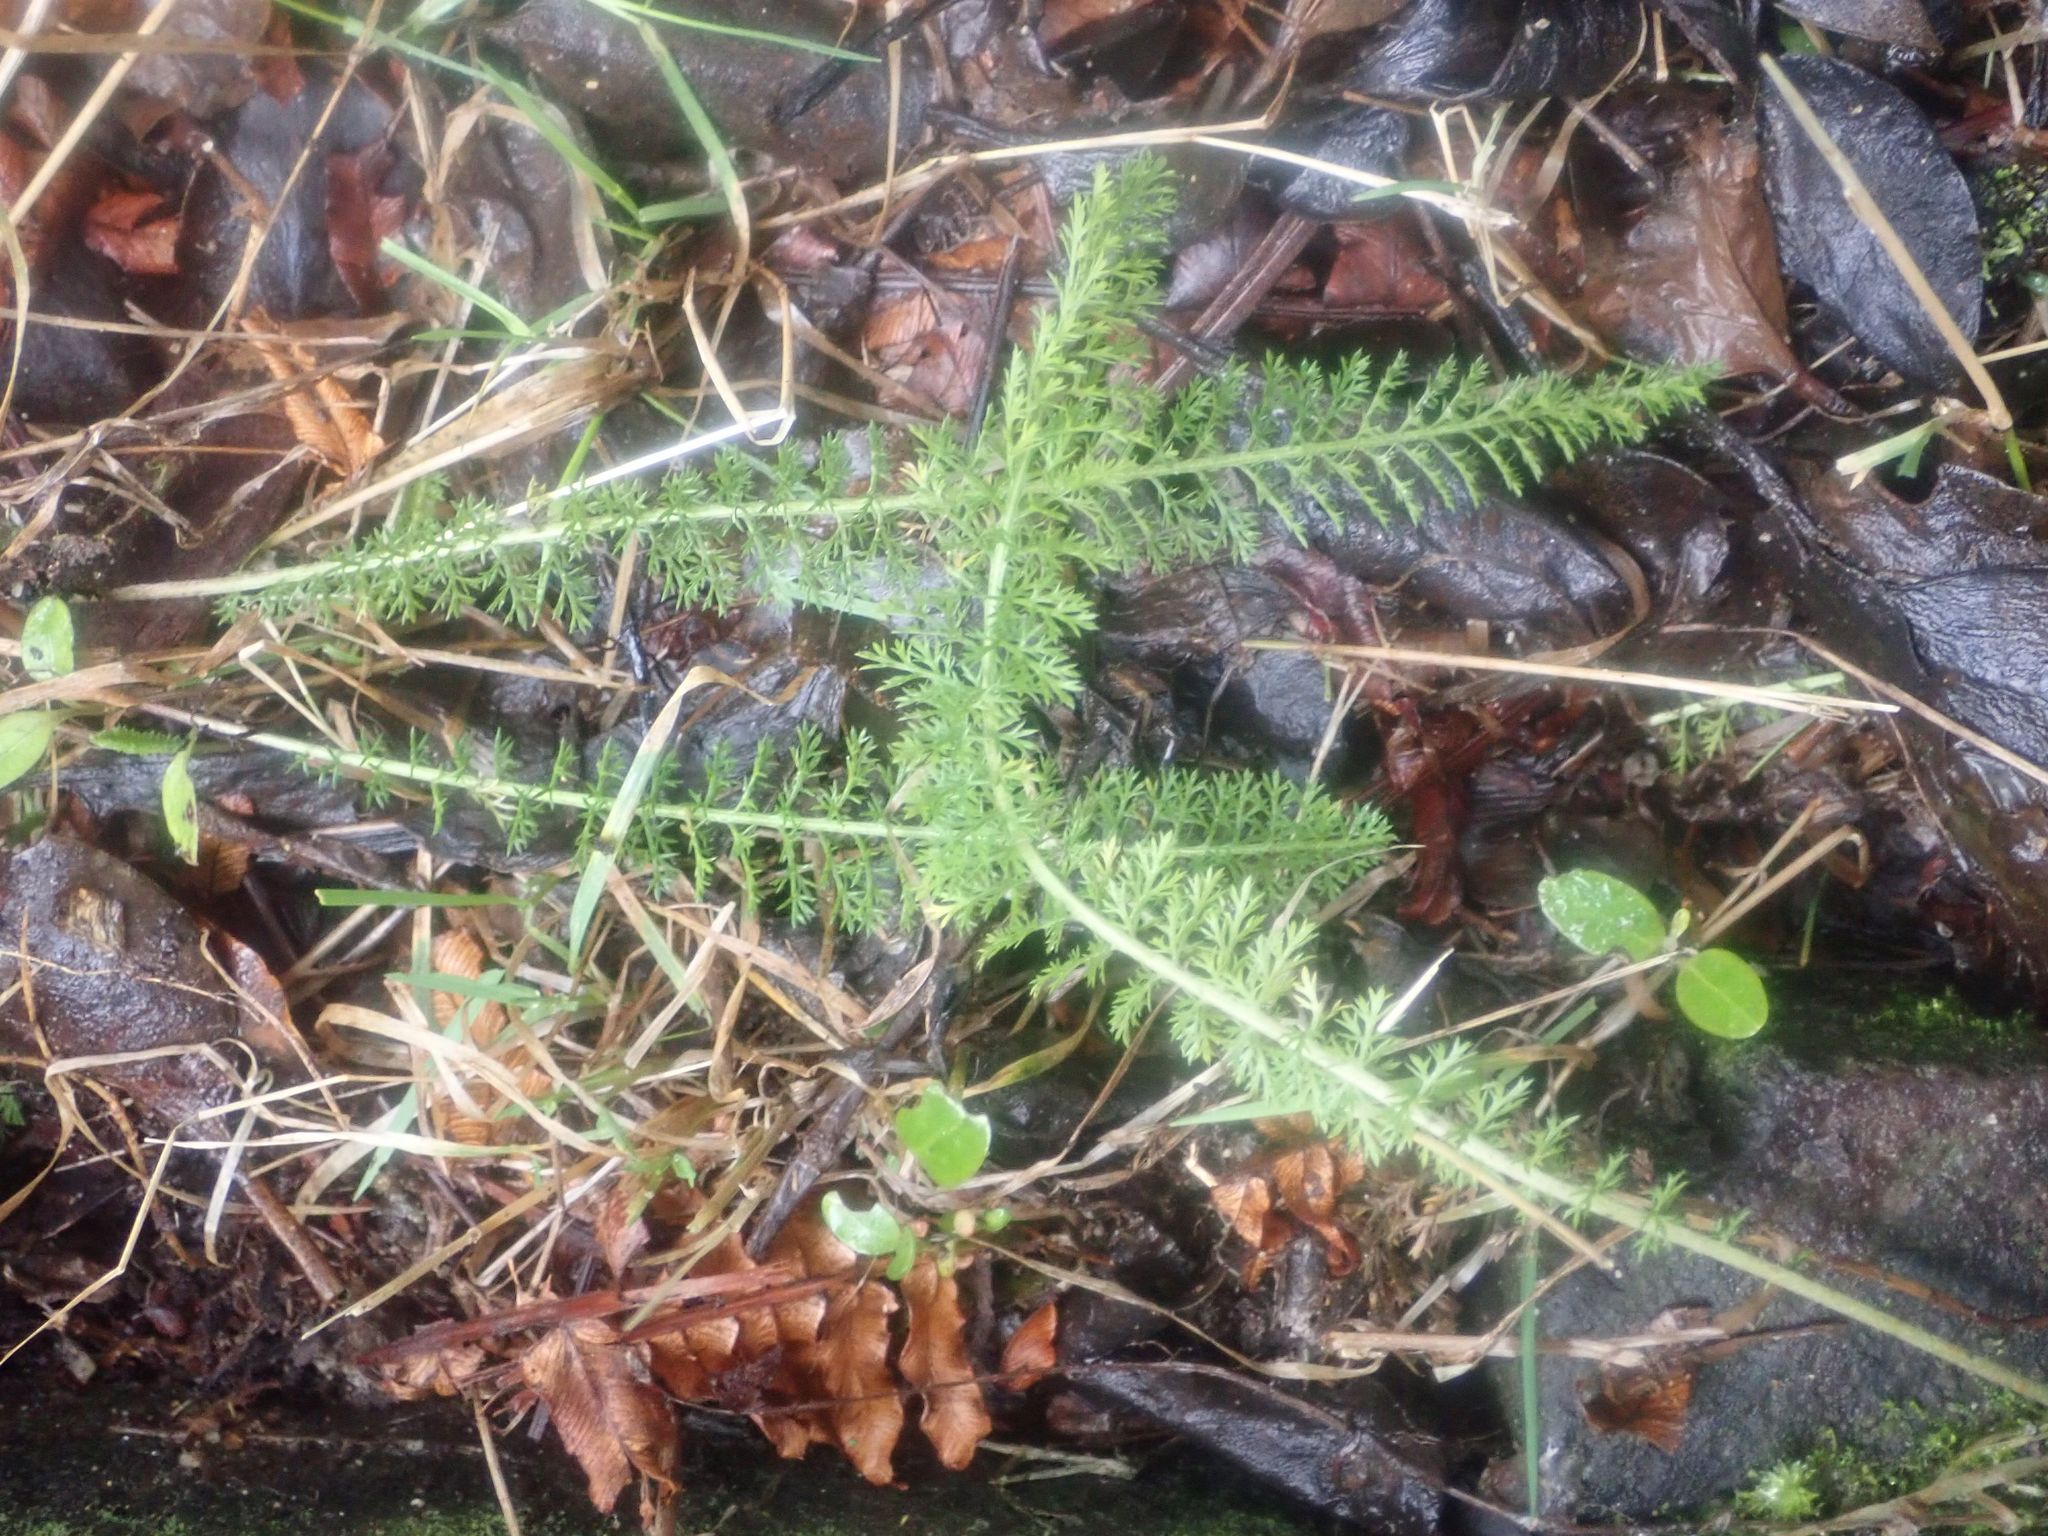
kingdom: Plantae
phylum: Tracheophyta
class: Magnoliopsida
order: Asterales
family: Asteraceae
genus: Achillea
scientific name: Achillea millefolium
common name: Yarrow
